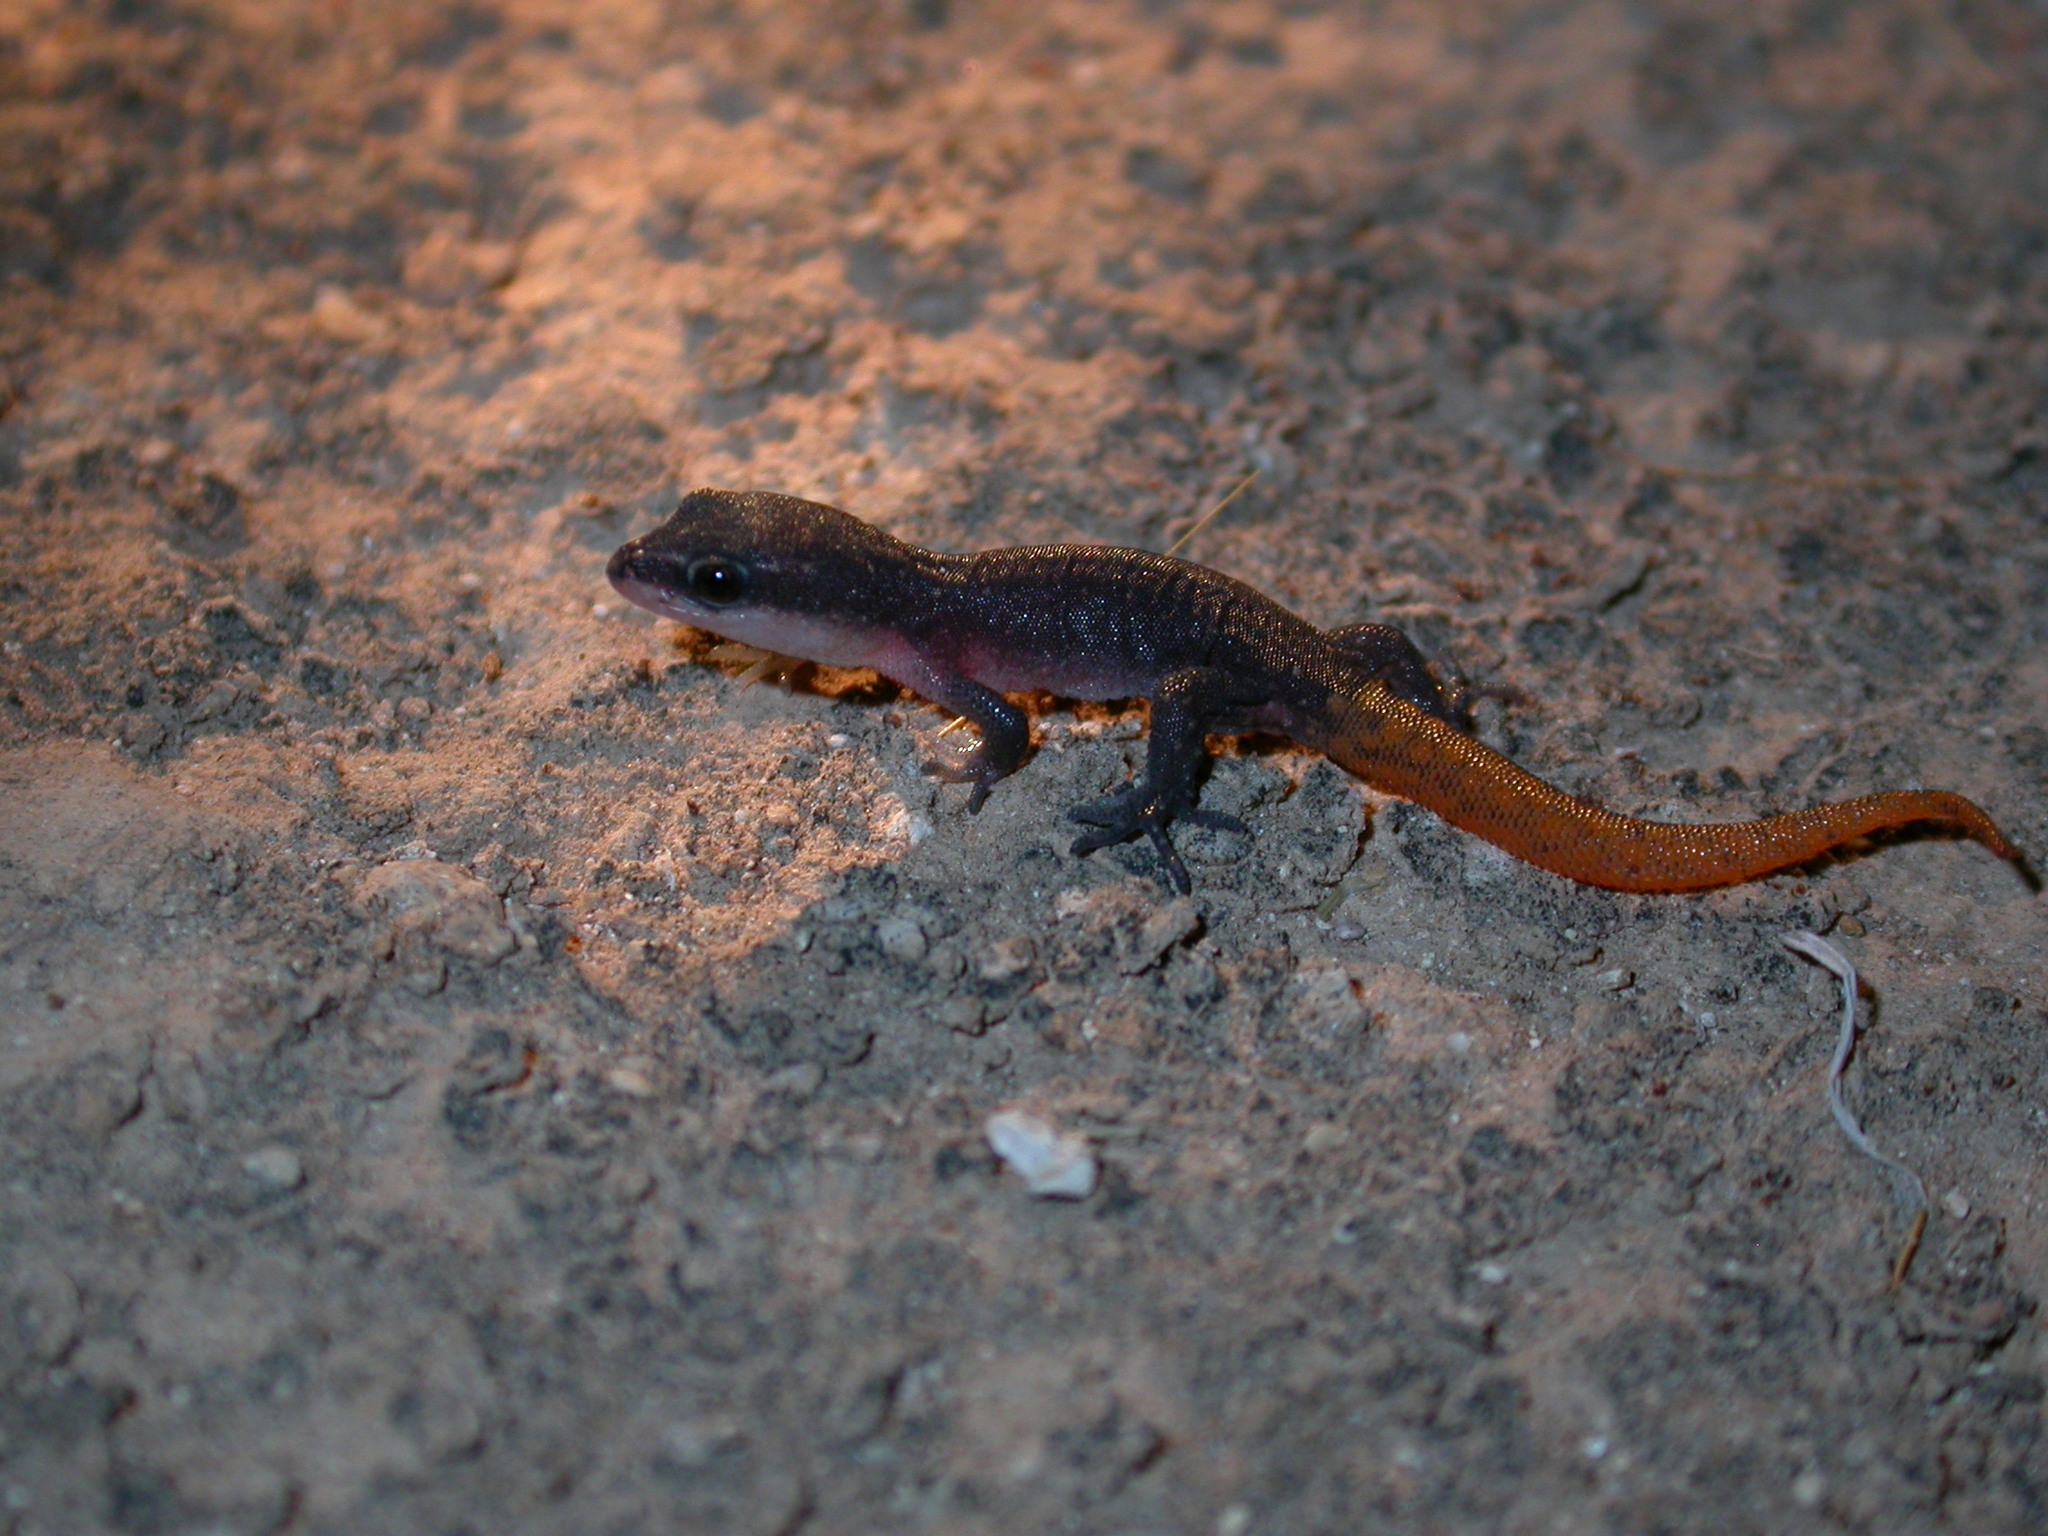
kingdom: Animalia
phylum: Chordata
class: Squamata
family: Sphaerodactylidae
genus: Saurodactylus
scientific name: Saurodactylus brosseti
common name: Morocco lizard-fingered gecko
